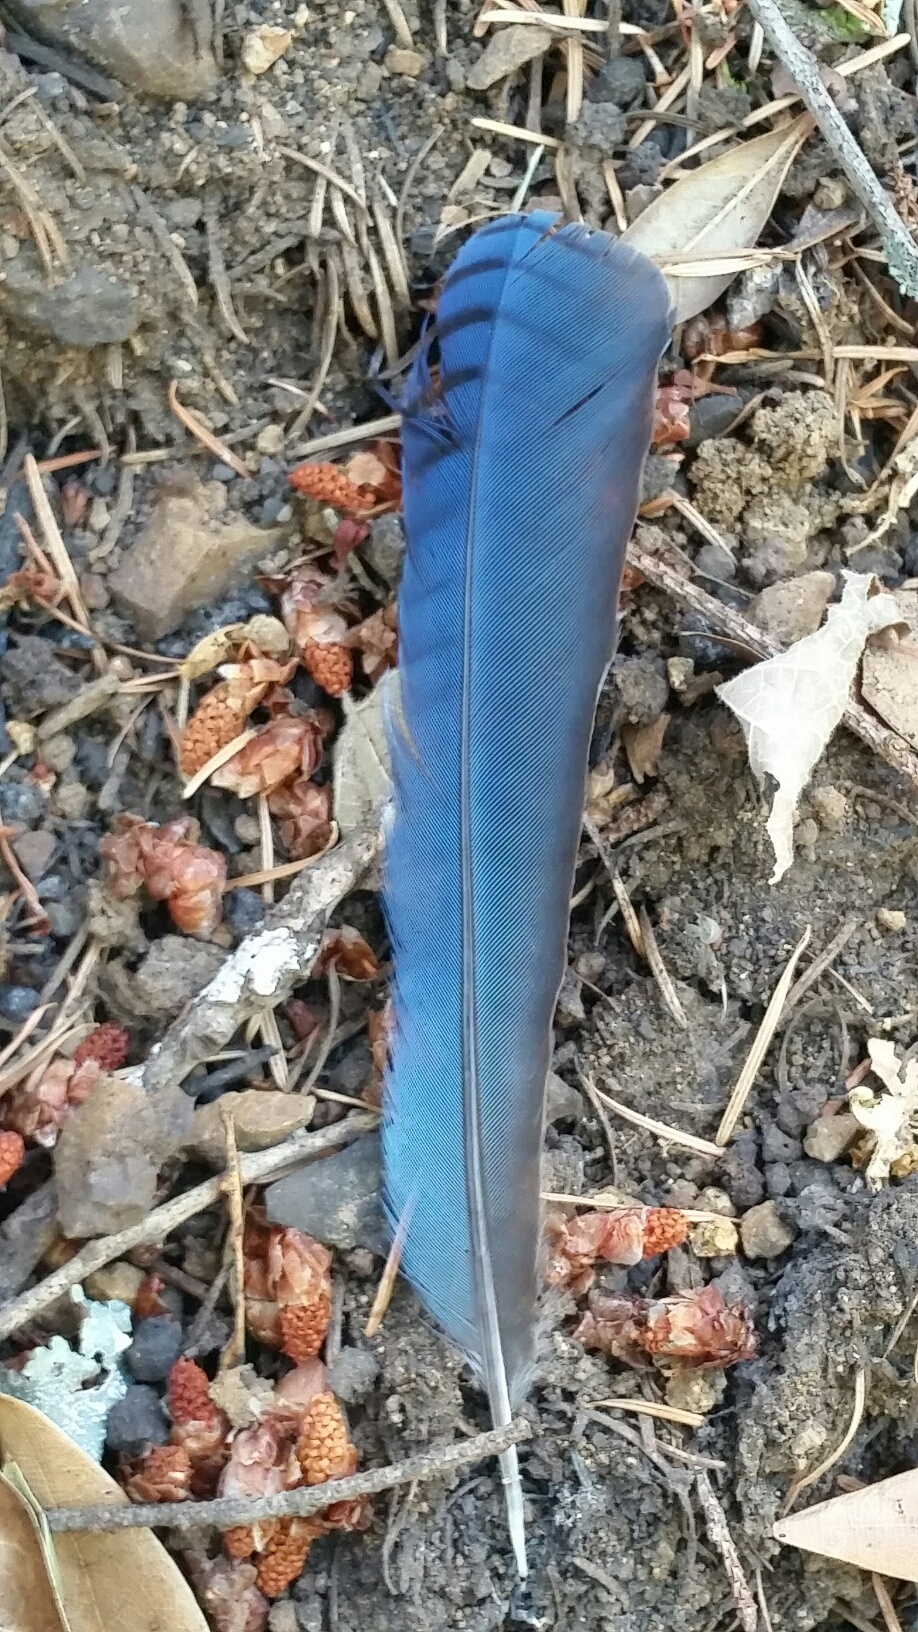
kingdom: Animalia
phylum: Chordata
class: Aves
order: Passeriformes
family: Corvidae
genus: Cyanocitta
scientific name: Cyanocitta stelleri
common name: Steller's jay
